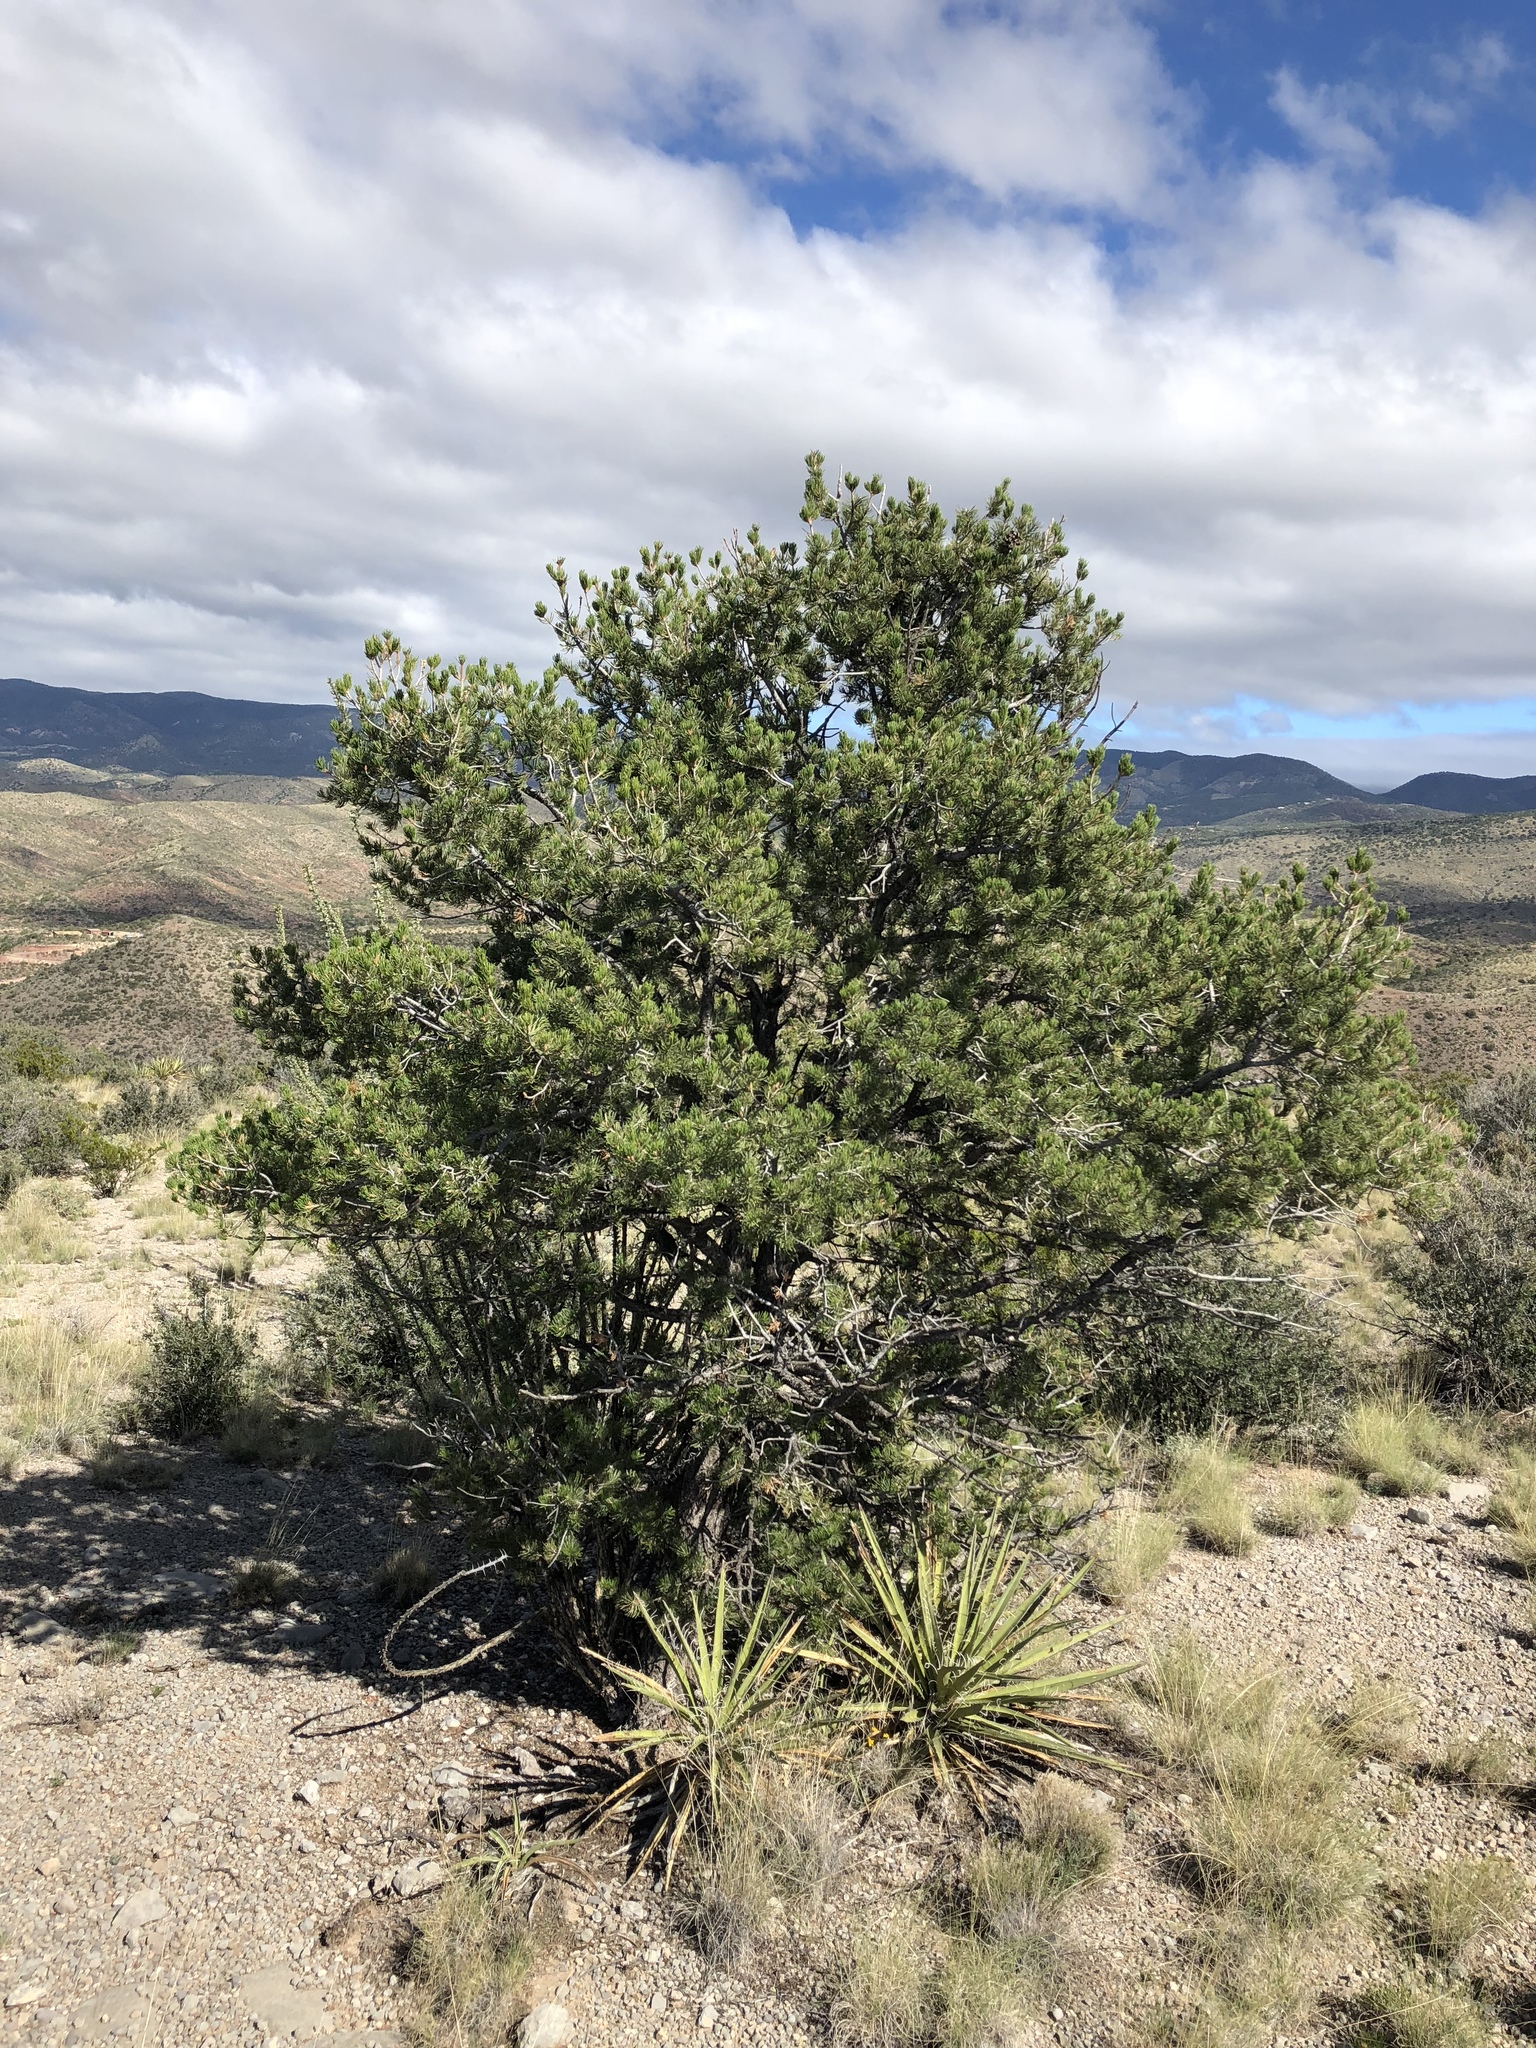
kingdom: Plantae
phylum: Tracheophyta
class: Pinopsida
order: Pinales
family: Pinaceae
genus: Pinus
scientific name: Pinus edulis
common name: Colorado pinyon
